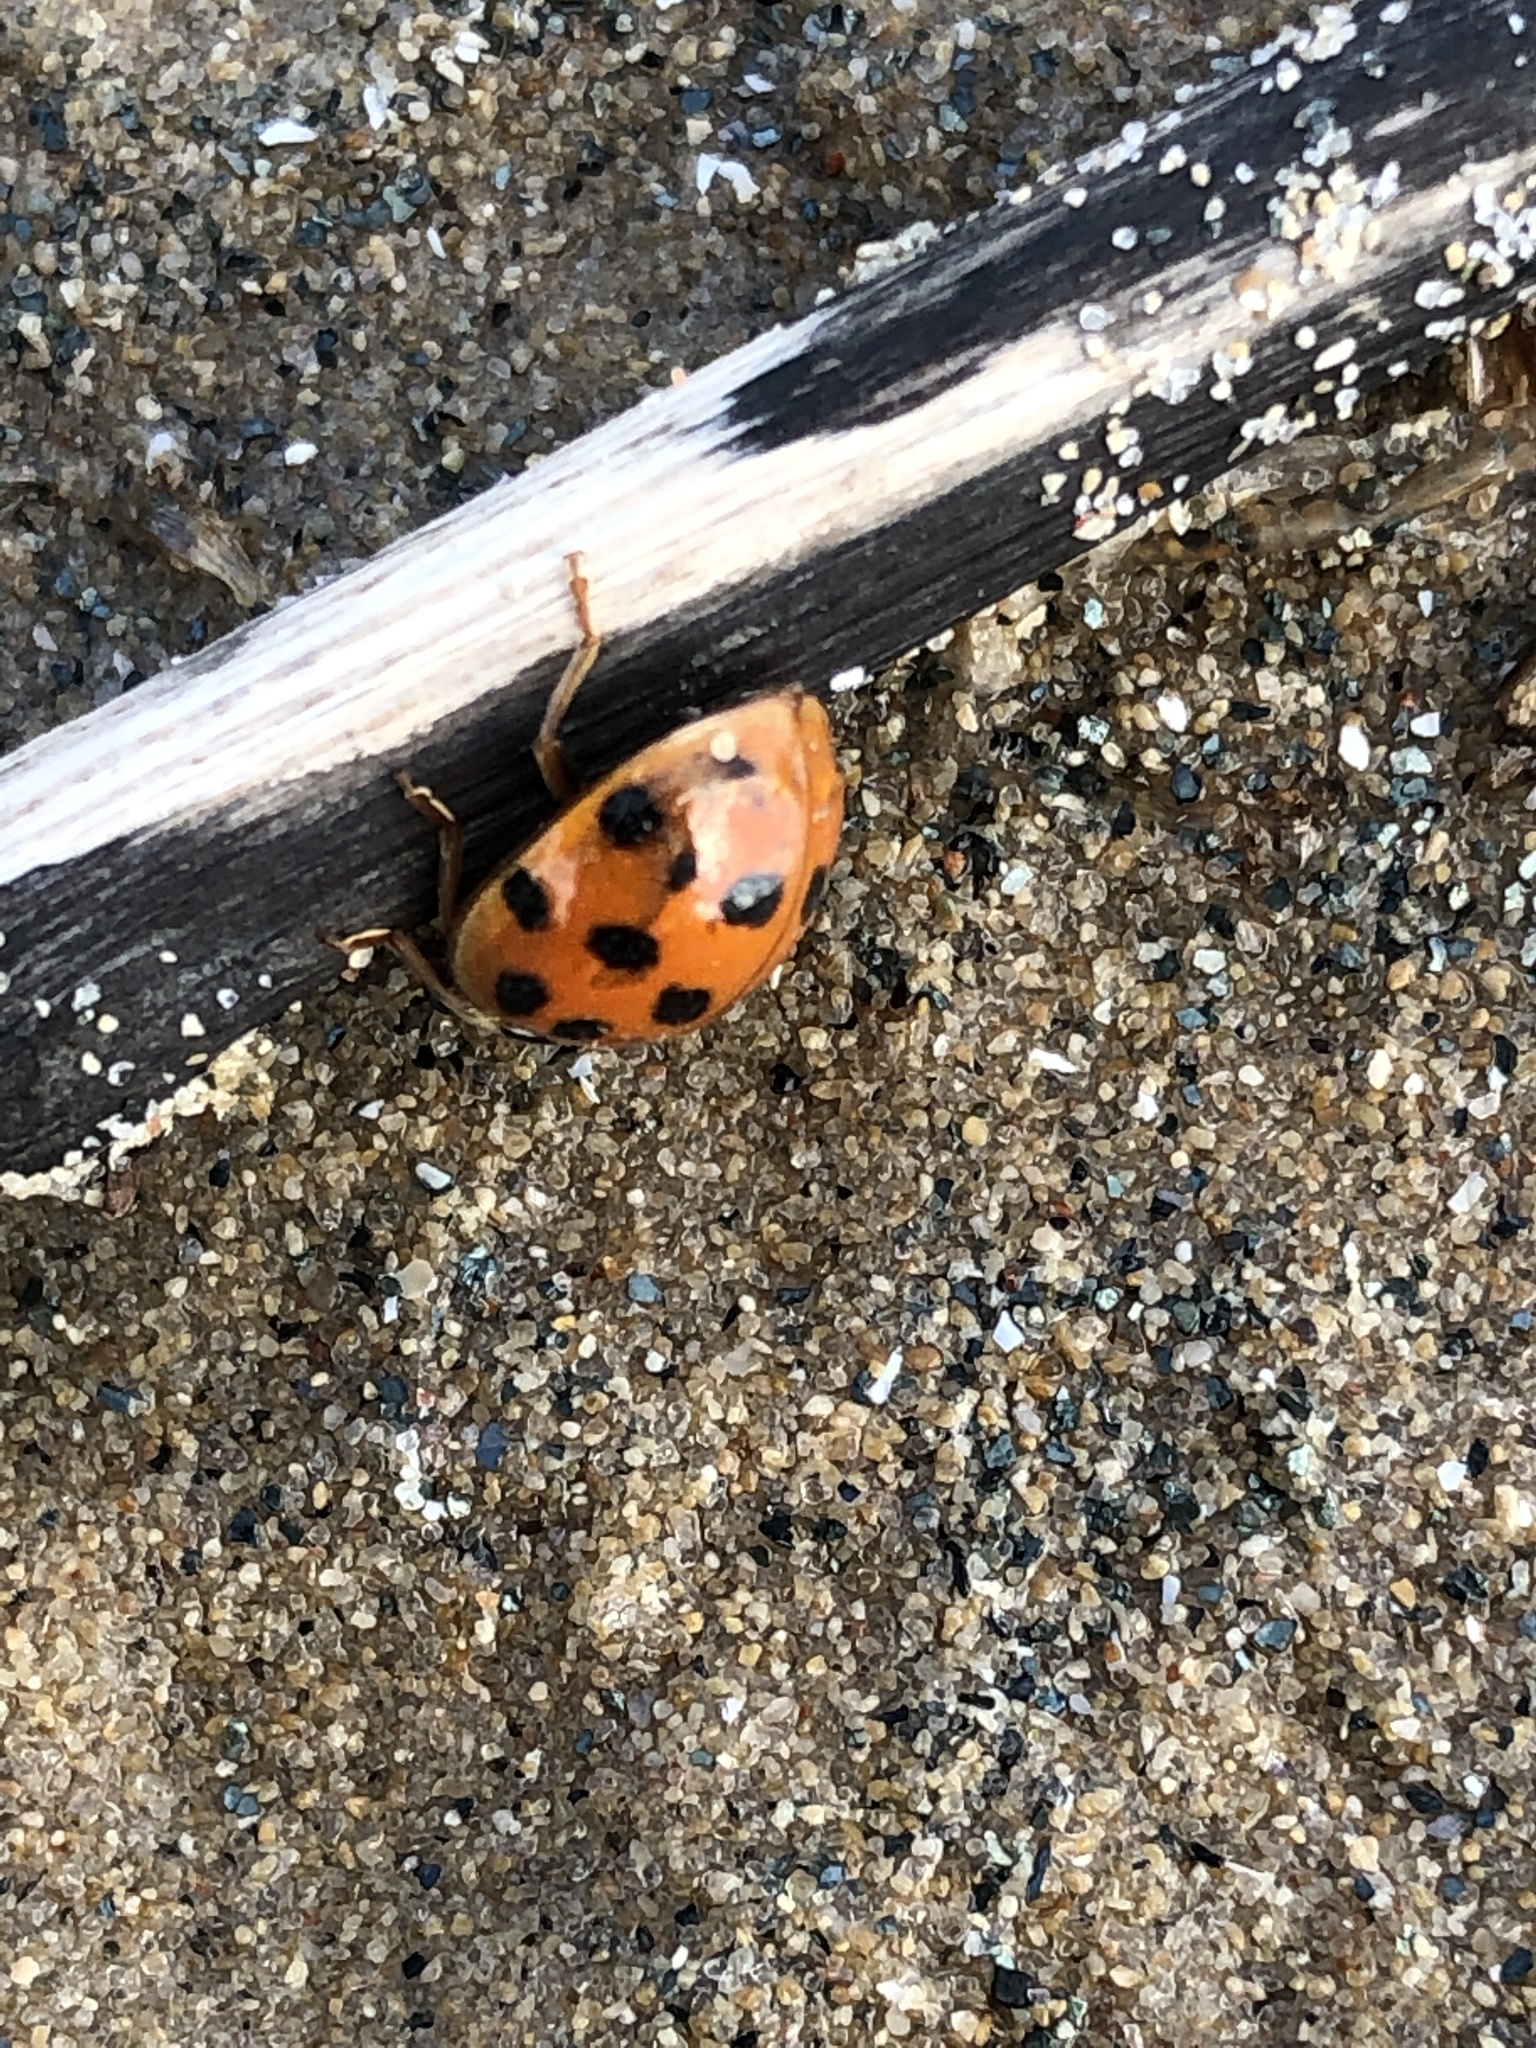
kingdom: Animalia
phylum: Arthropoda
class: Insecta
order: Coleoptera
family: Coccinellidae
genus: Harmonia
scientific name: Harmonia axyridis
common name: Harlequin ladybird
